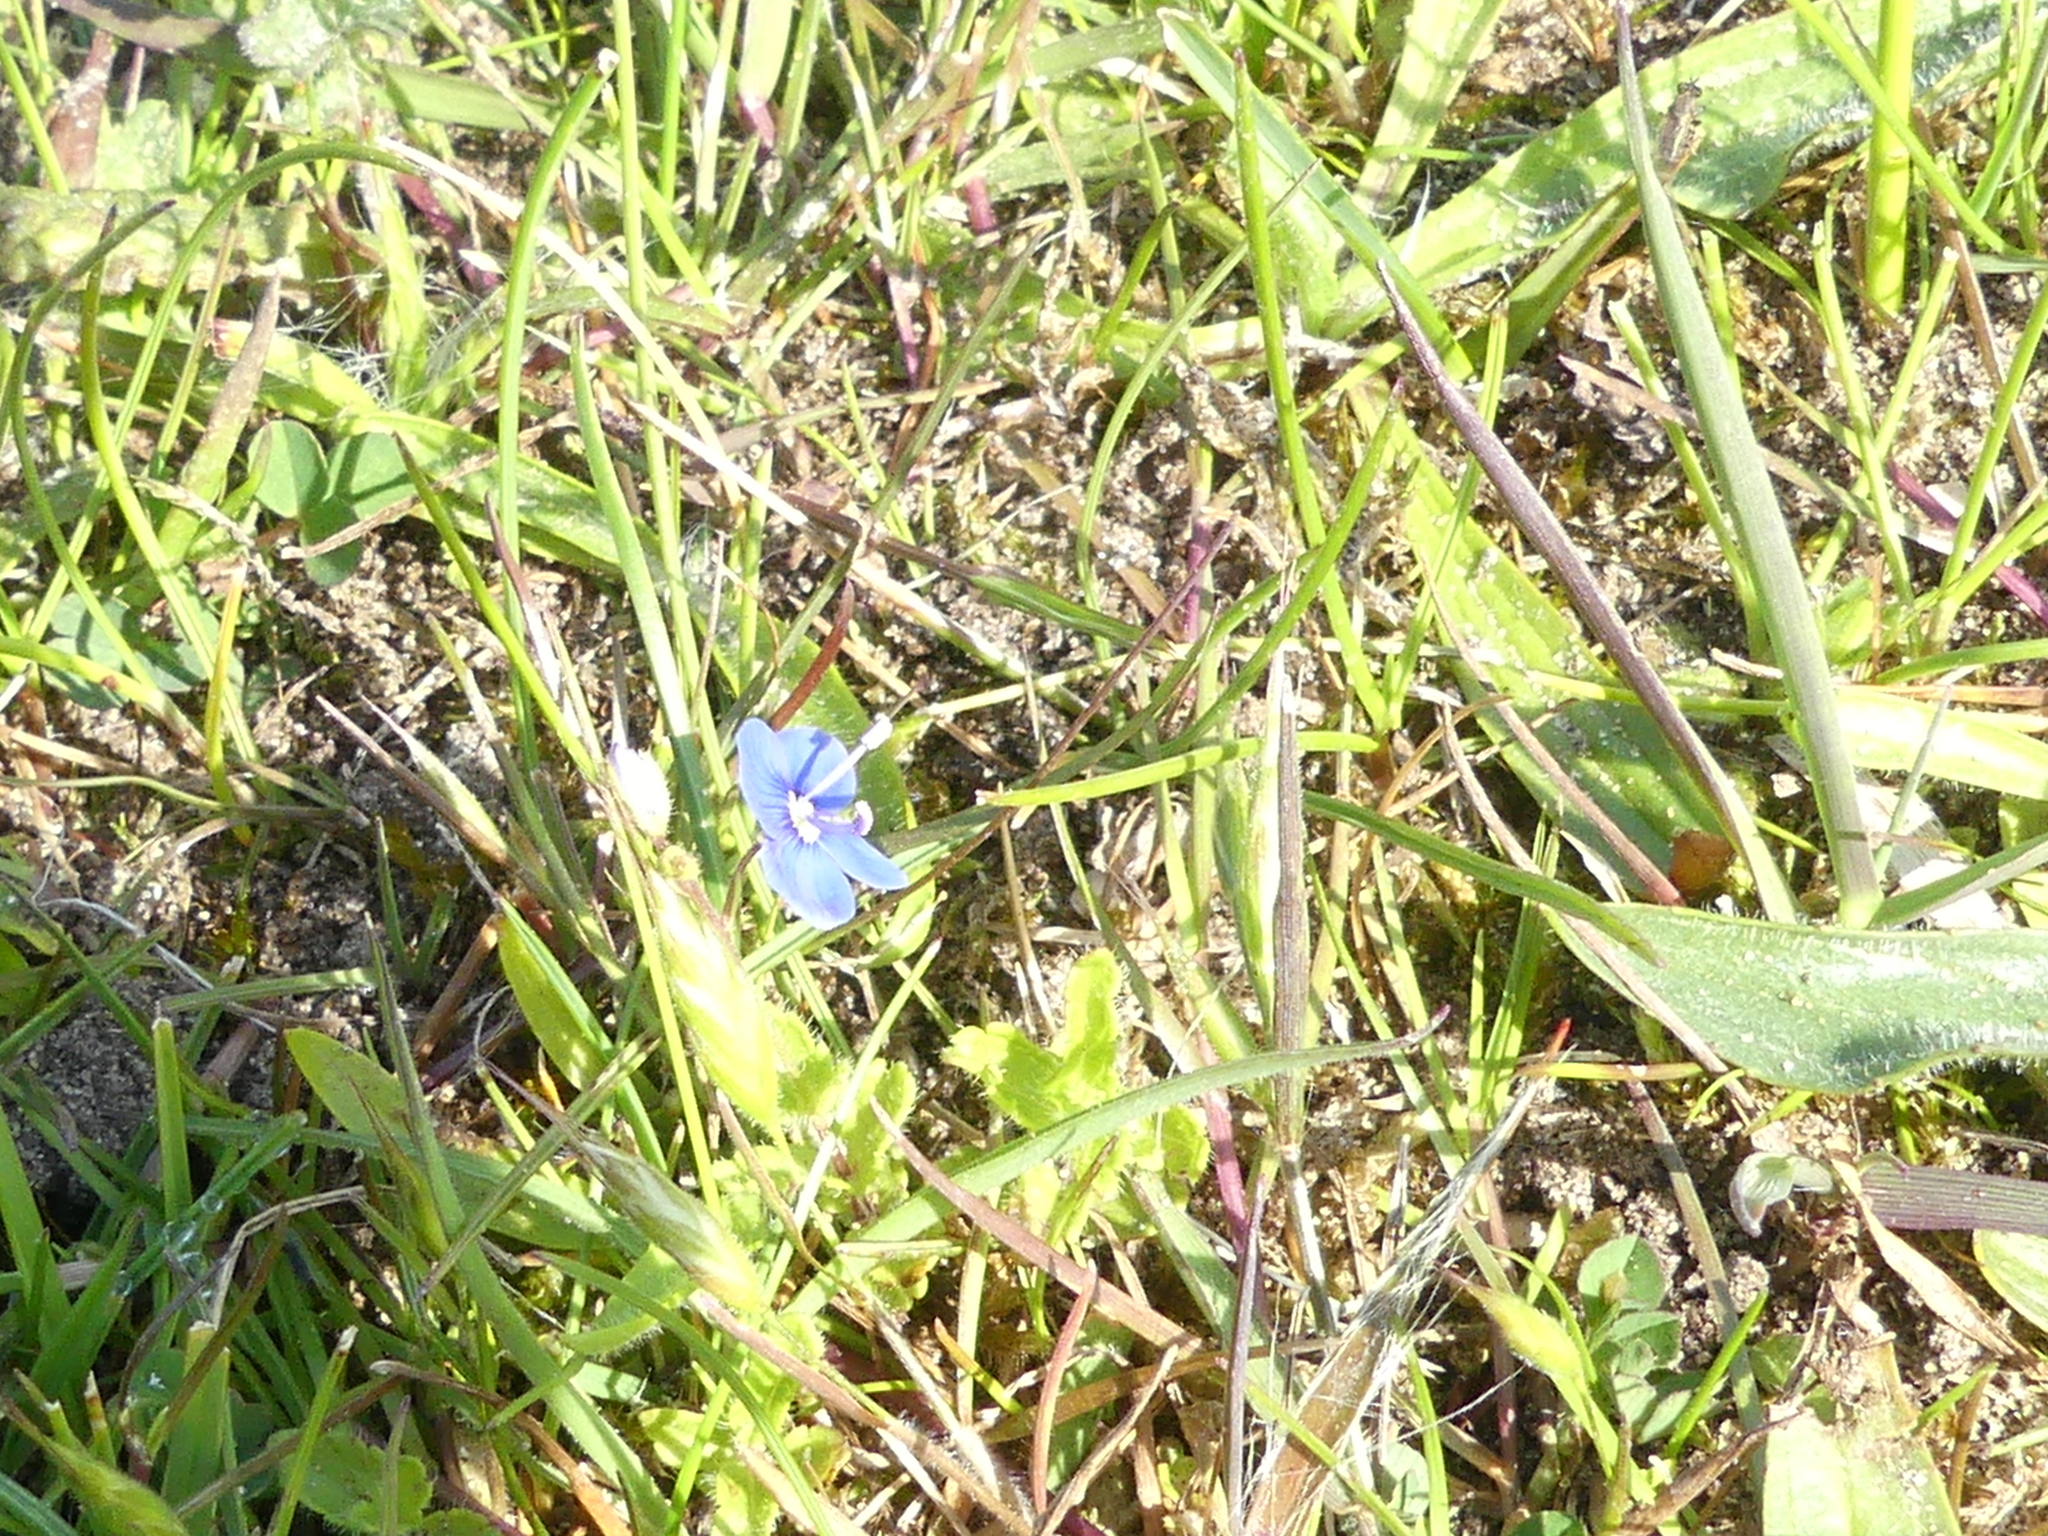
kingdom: Plantae
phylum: Tracheophyta
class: Magnoliopsida
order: Lamiales
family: Plantaginaceae
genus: Veronica
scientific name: Veronica chamaedrys
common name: Germander speedwell
